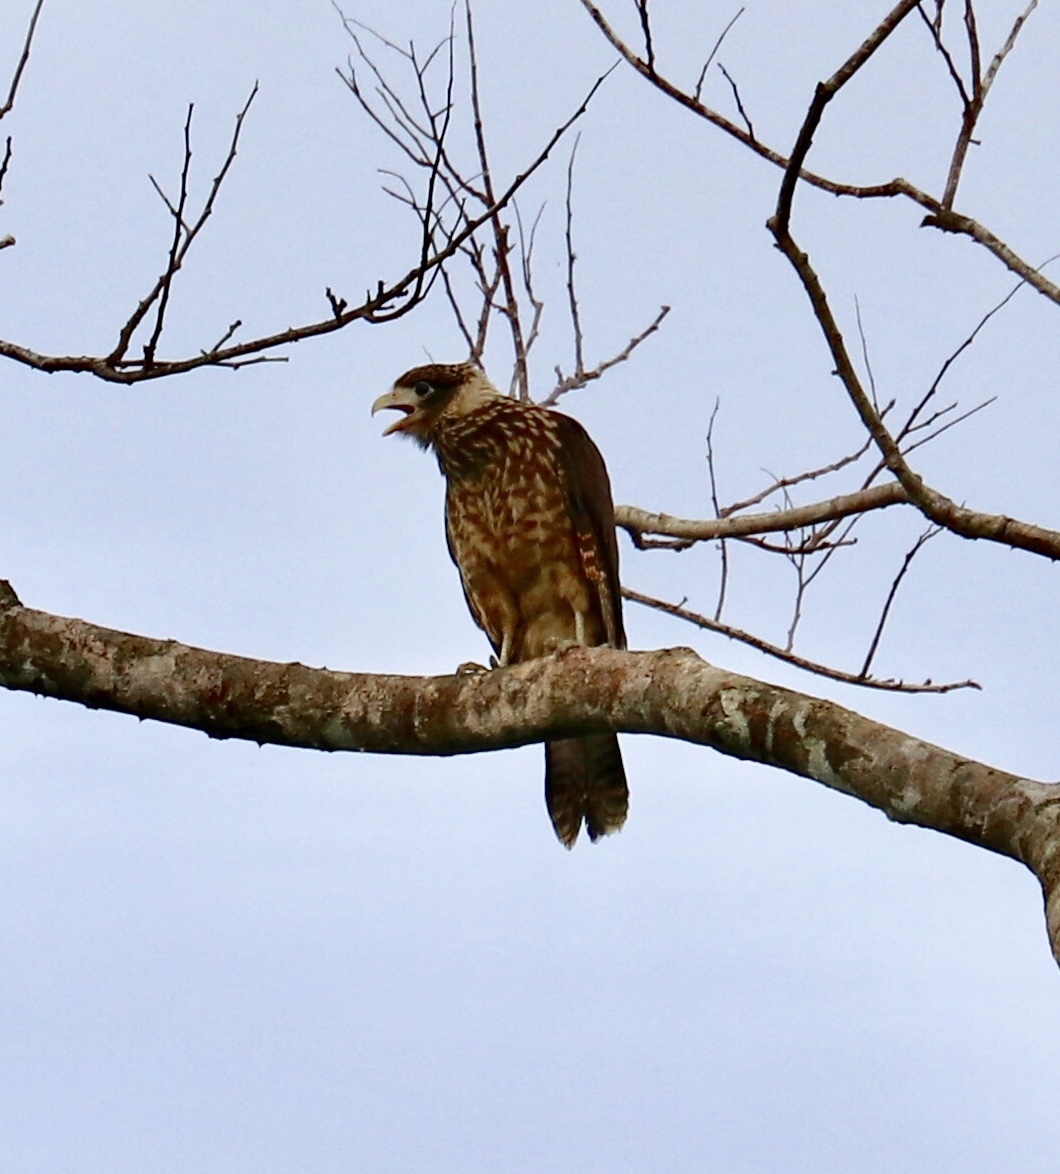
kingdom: Animalia
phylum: Chordata
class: Aves
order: Falconiformes
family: Falconidae
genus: Daptrius
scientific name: Daptrius
